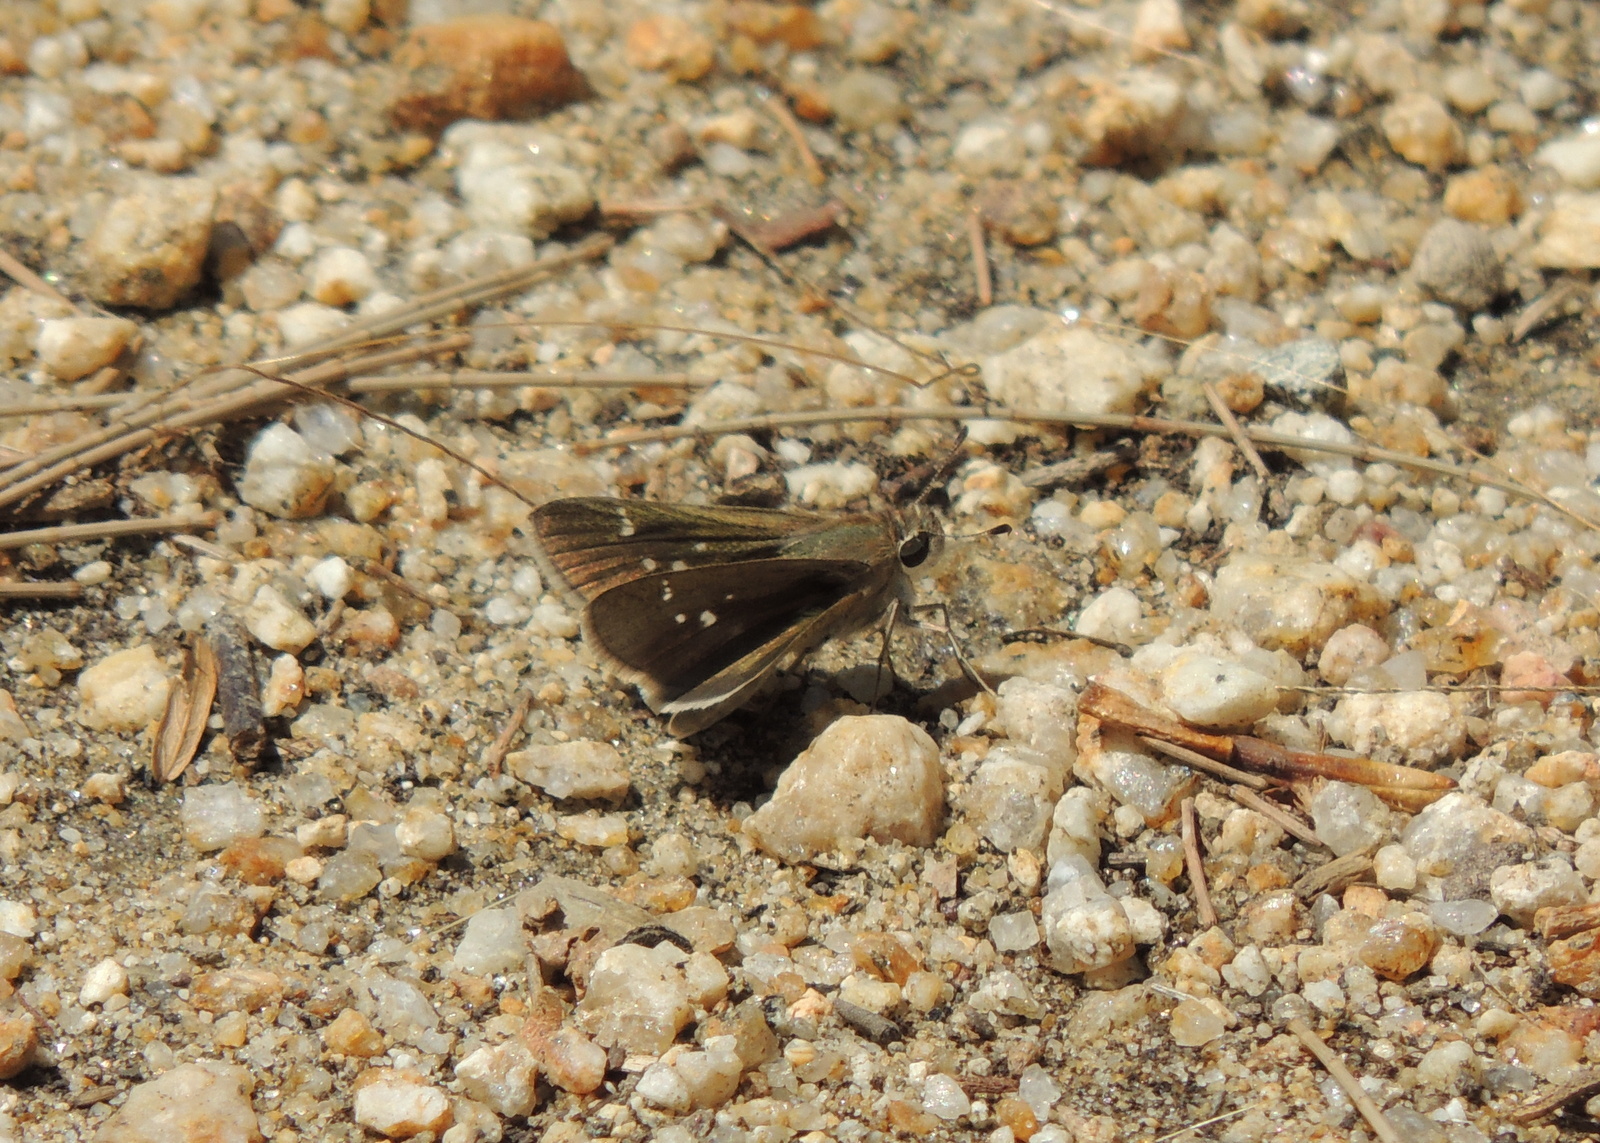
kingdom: Animalia
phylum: Arthropoda
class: Insecta
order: Lepidoptera
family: Hesperiidae
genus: Lerodea
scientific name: Lerodea eufala
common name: Eufala skipper
